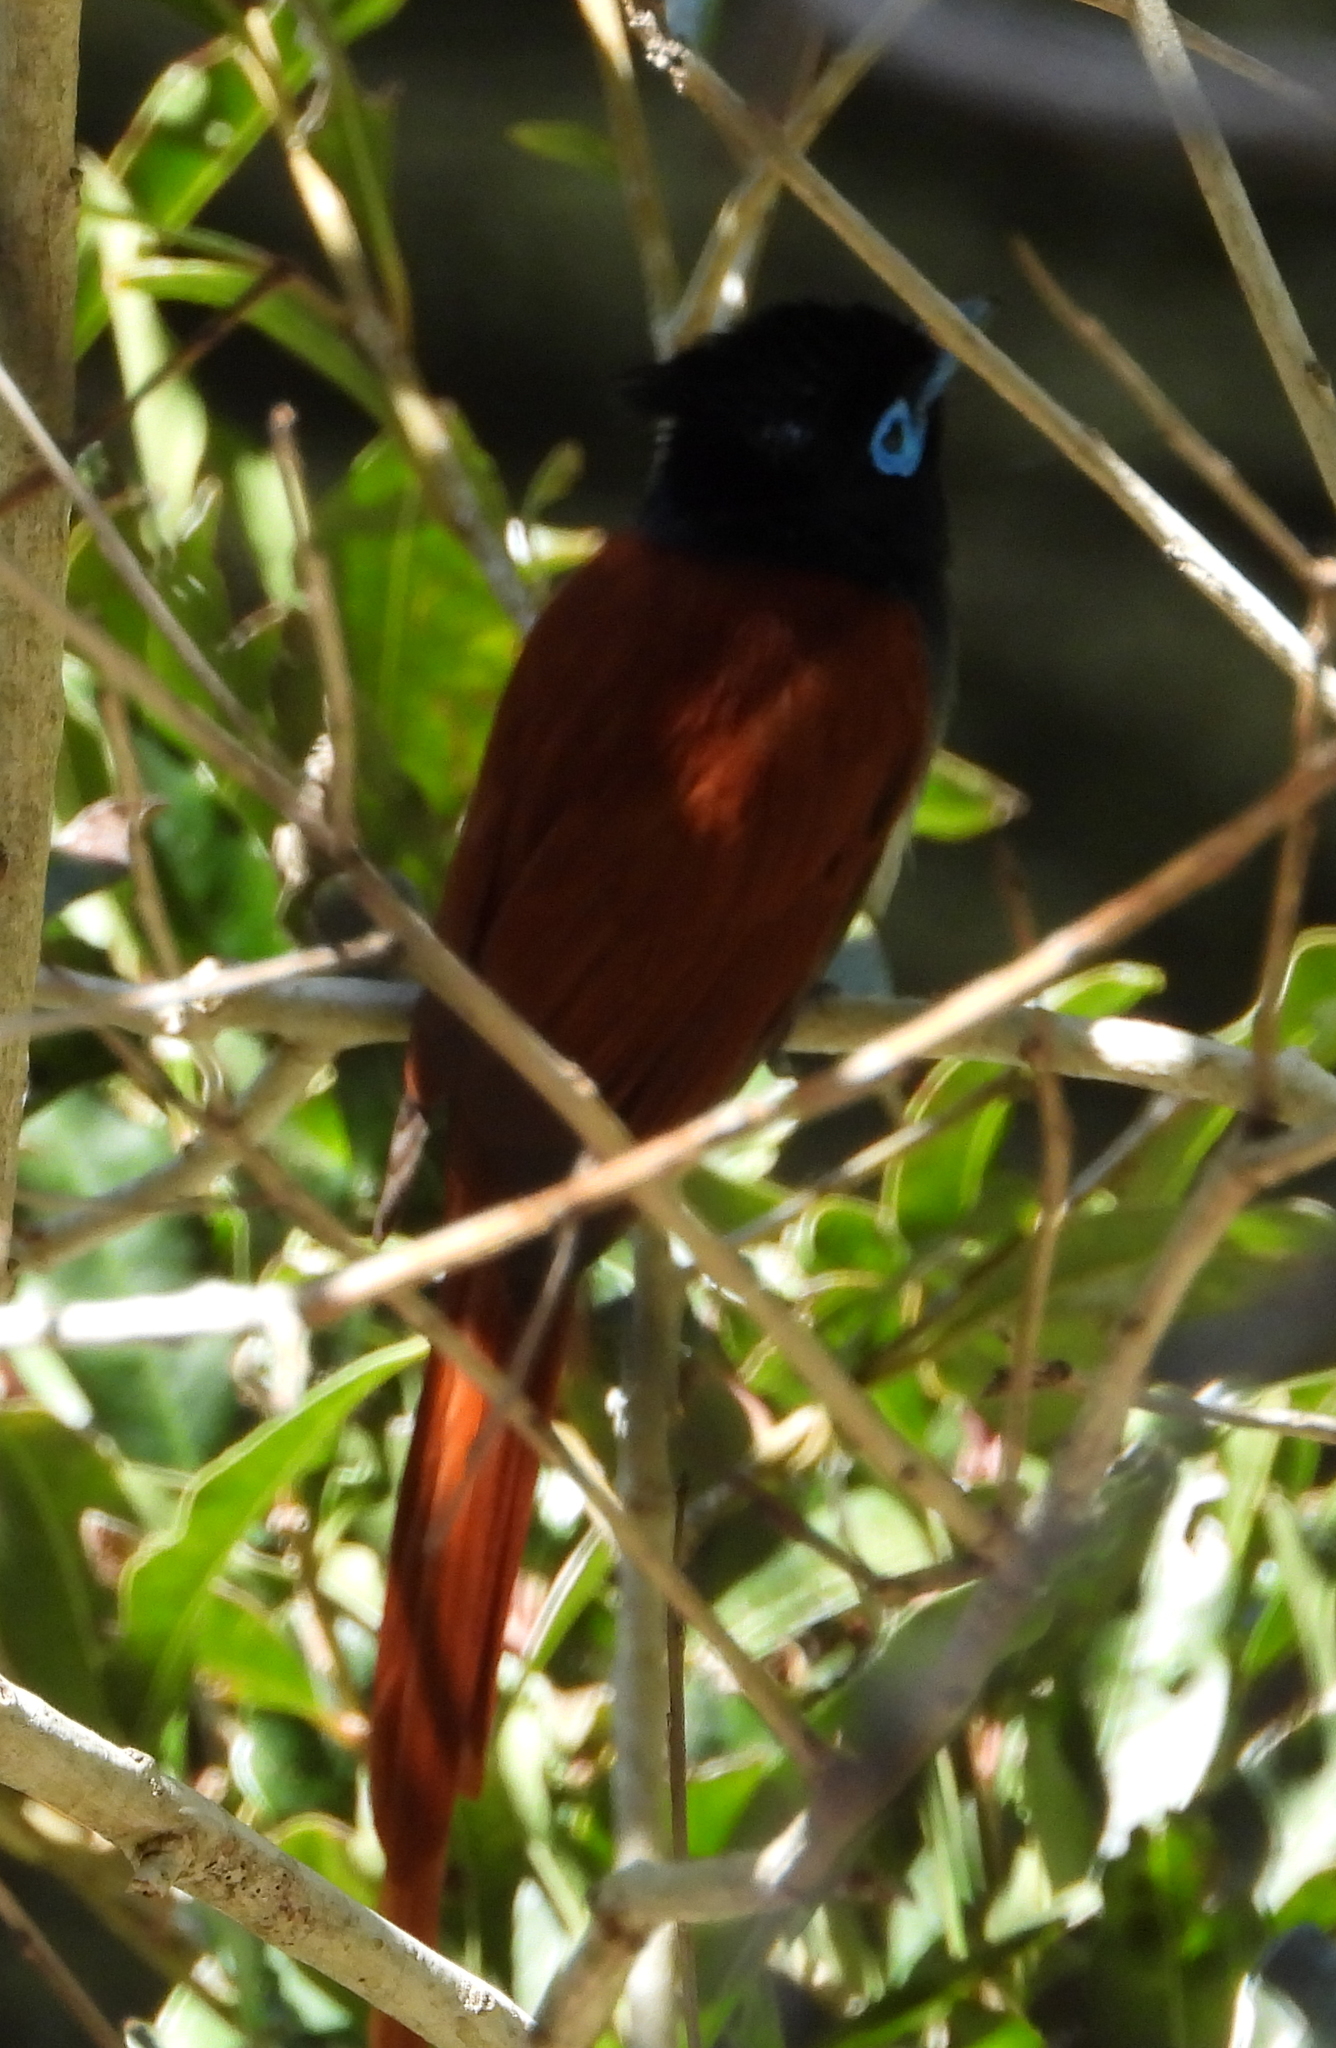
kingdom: Animalia
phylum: Chordata
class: Aves
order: Passeriformes
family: Monarchidae
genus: Terpsiphone
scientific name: Terpsiphone viridis
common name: African paradise flycatcher
